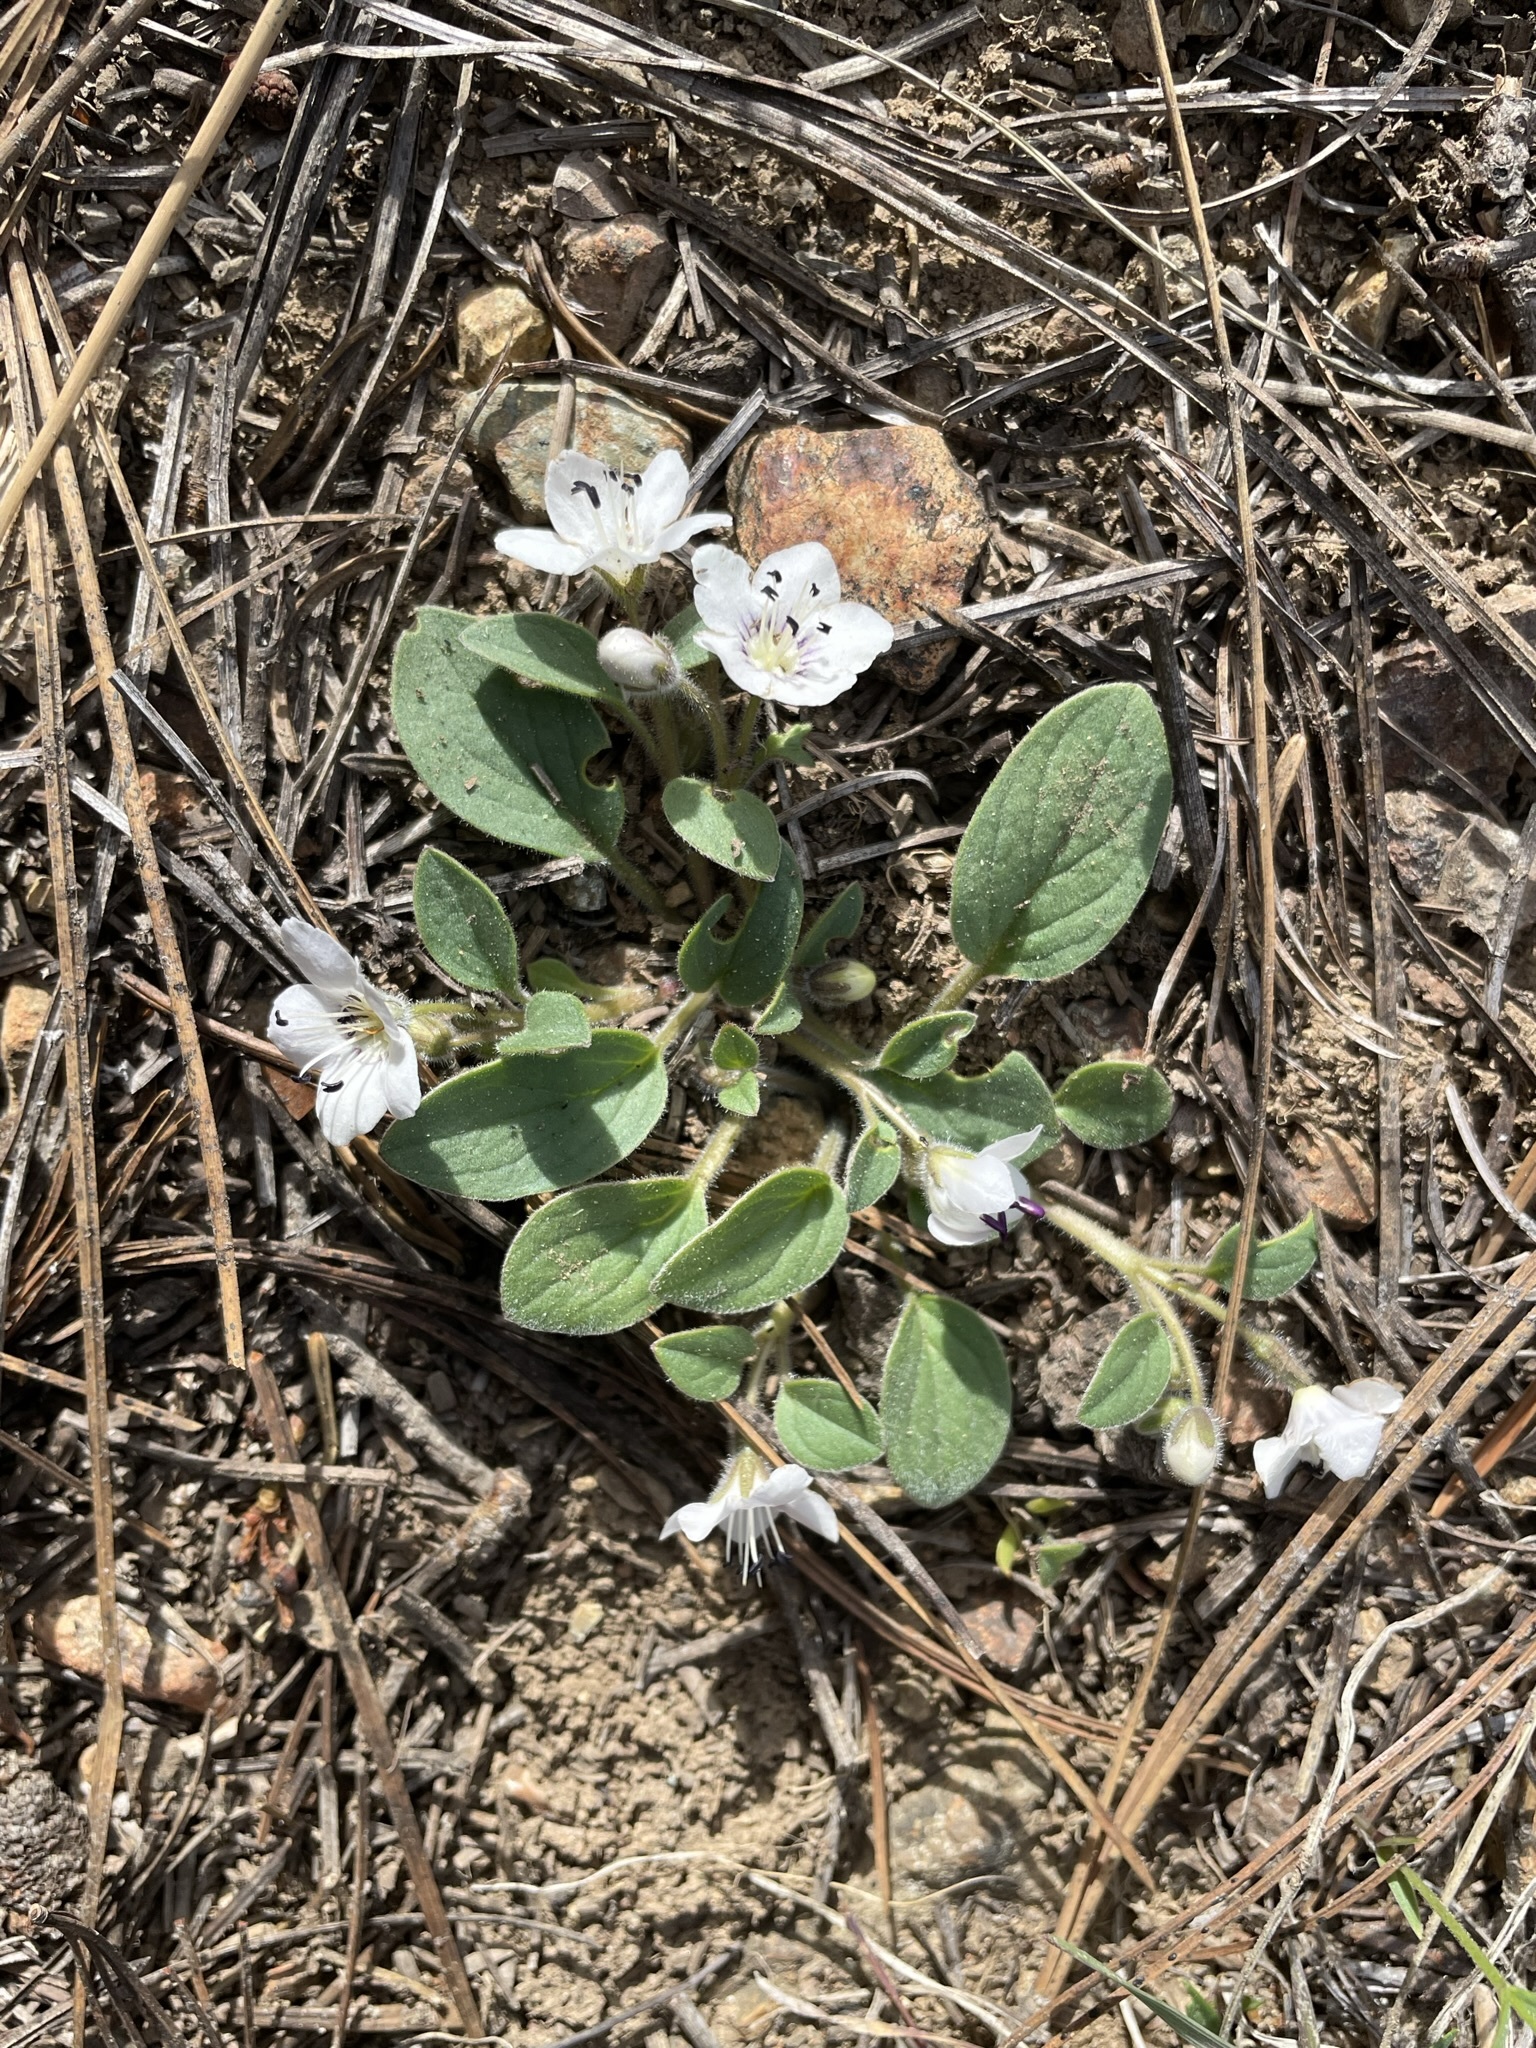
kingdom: Plantae
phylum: Tracheophyta
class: Magnoliopsida
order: Boraginales
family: Hydrophyllaceae
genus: Howellanthus
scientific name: Howellanthus dalesianus
